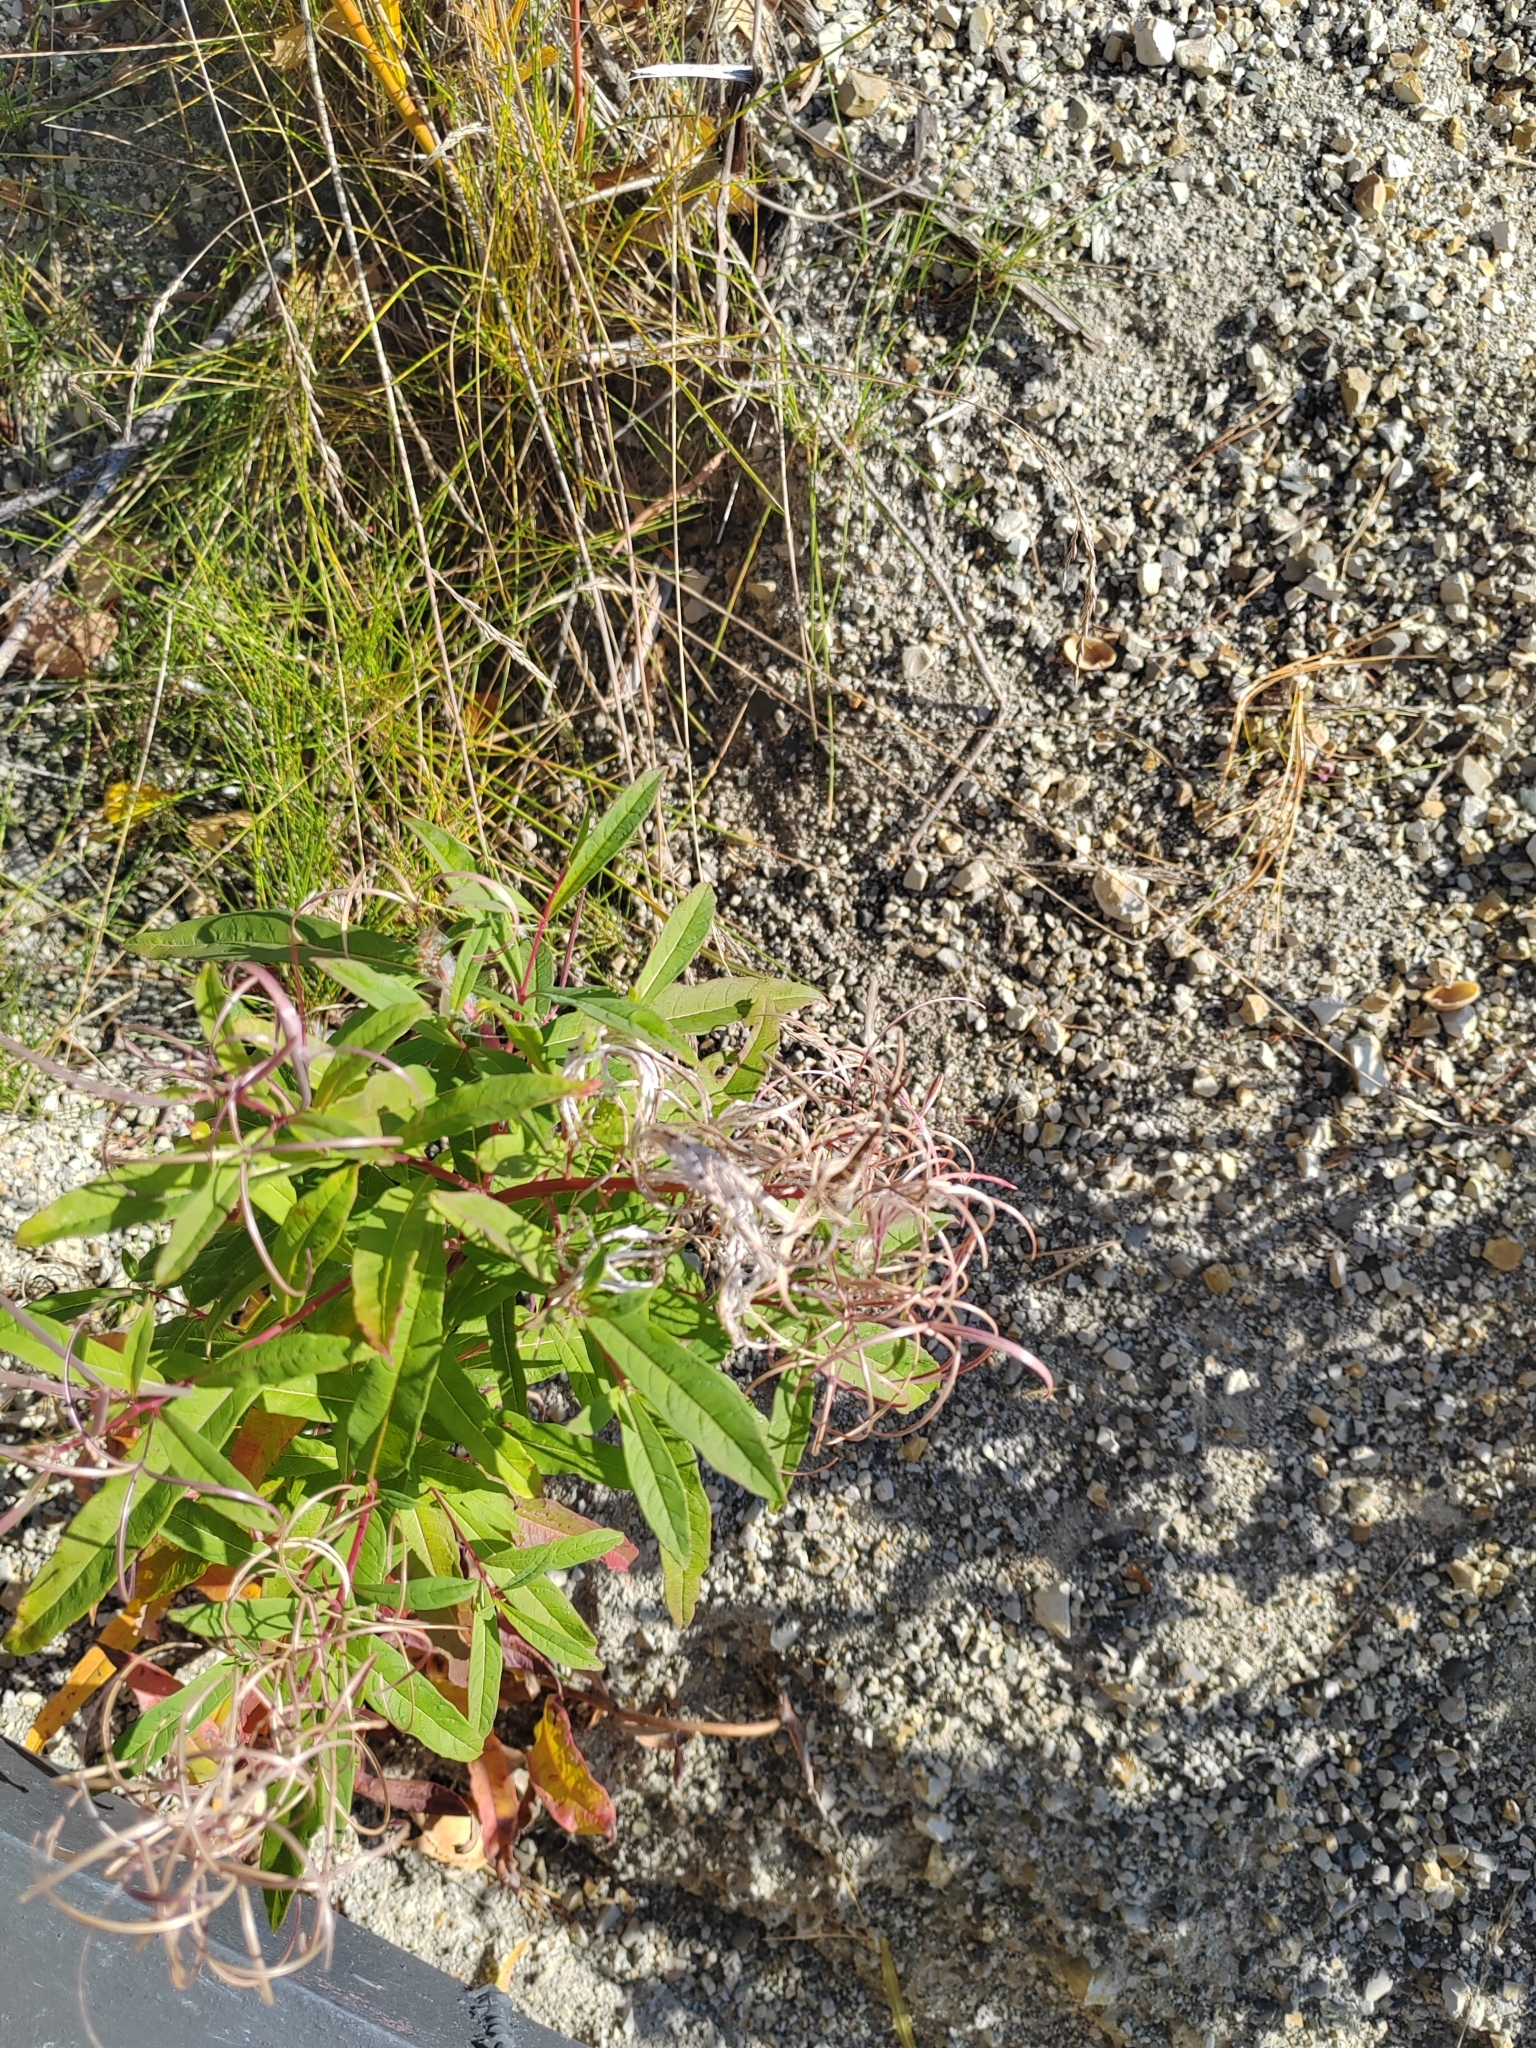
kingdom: Plantae
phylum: Tracheophyta
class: Magnoliopsida
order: Myrtales
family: Onagraceae
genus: Chamaenerion
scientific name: Chamaenerion angustifolium
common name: Fireweed
